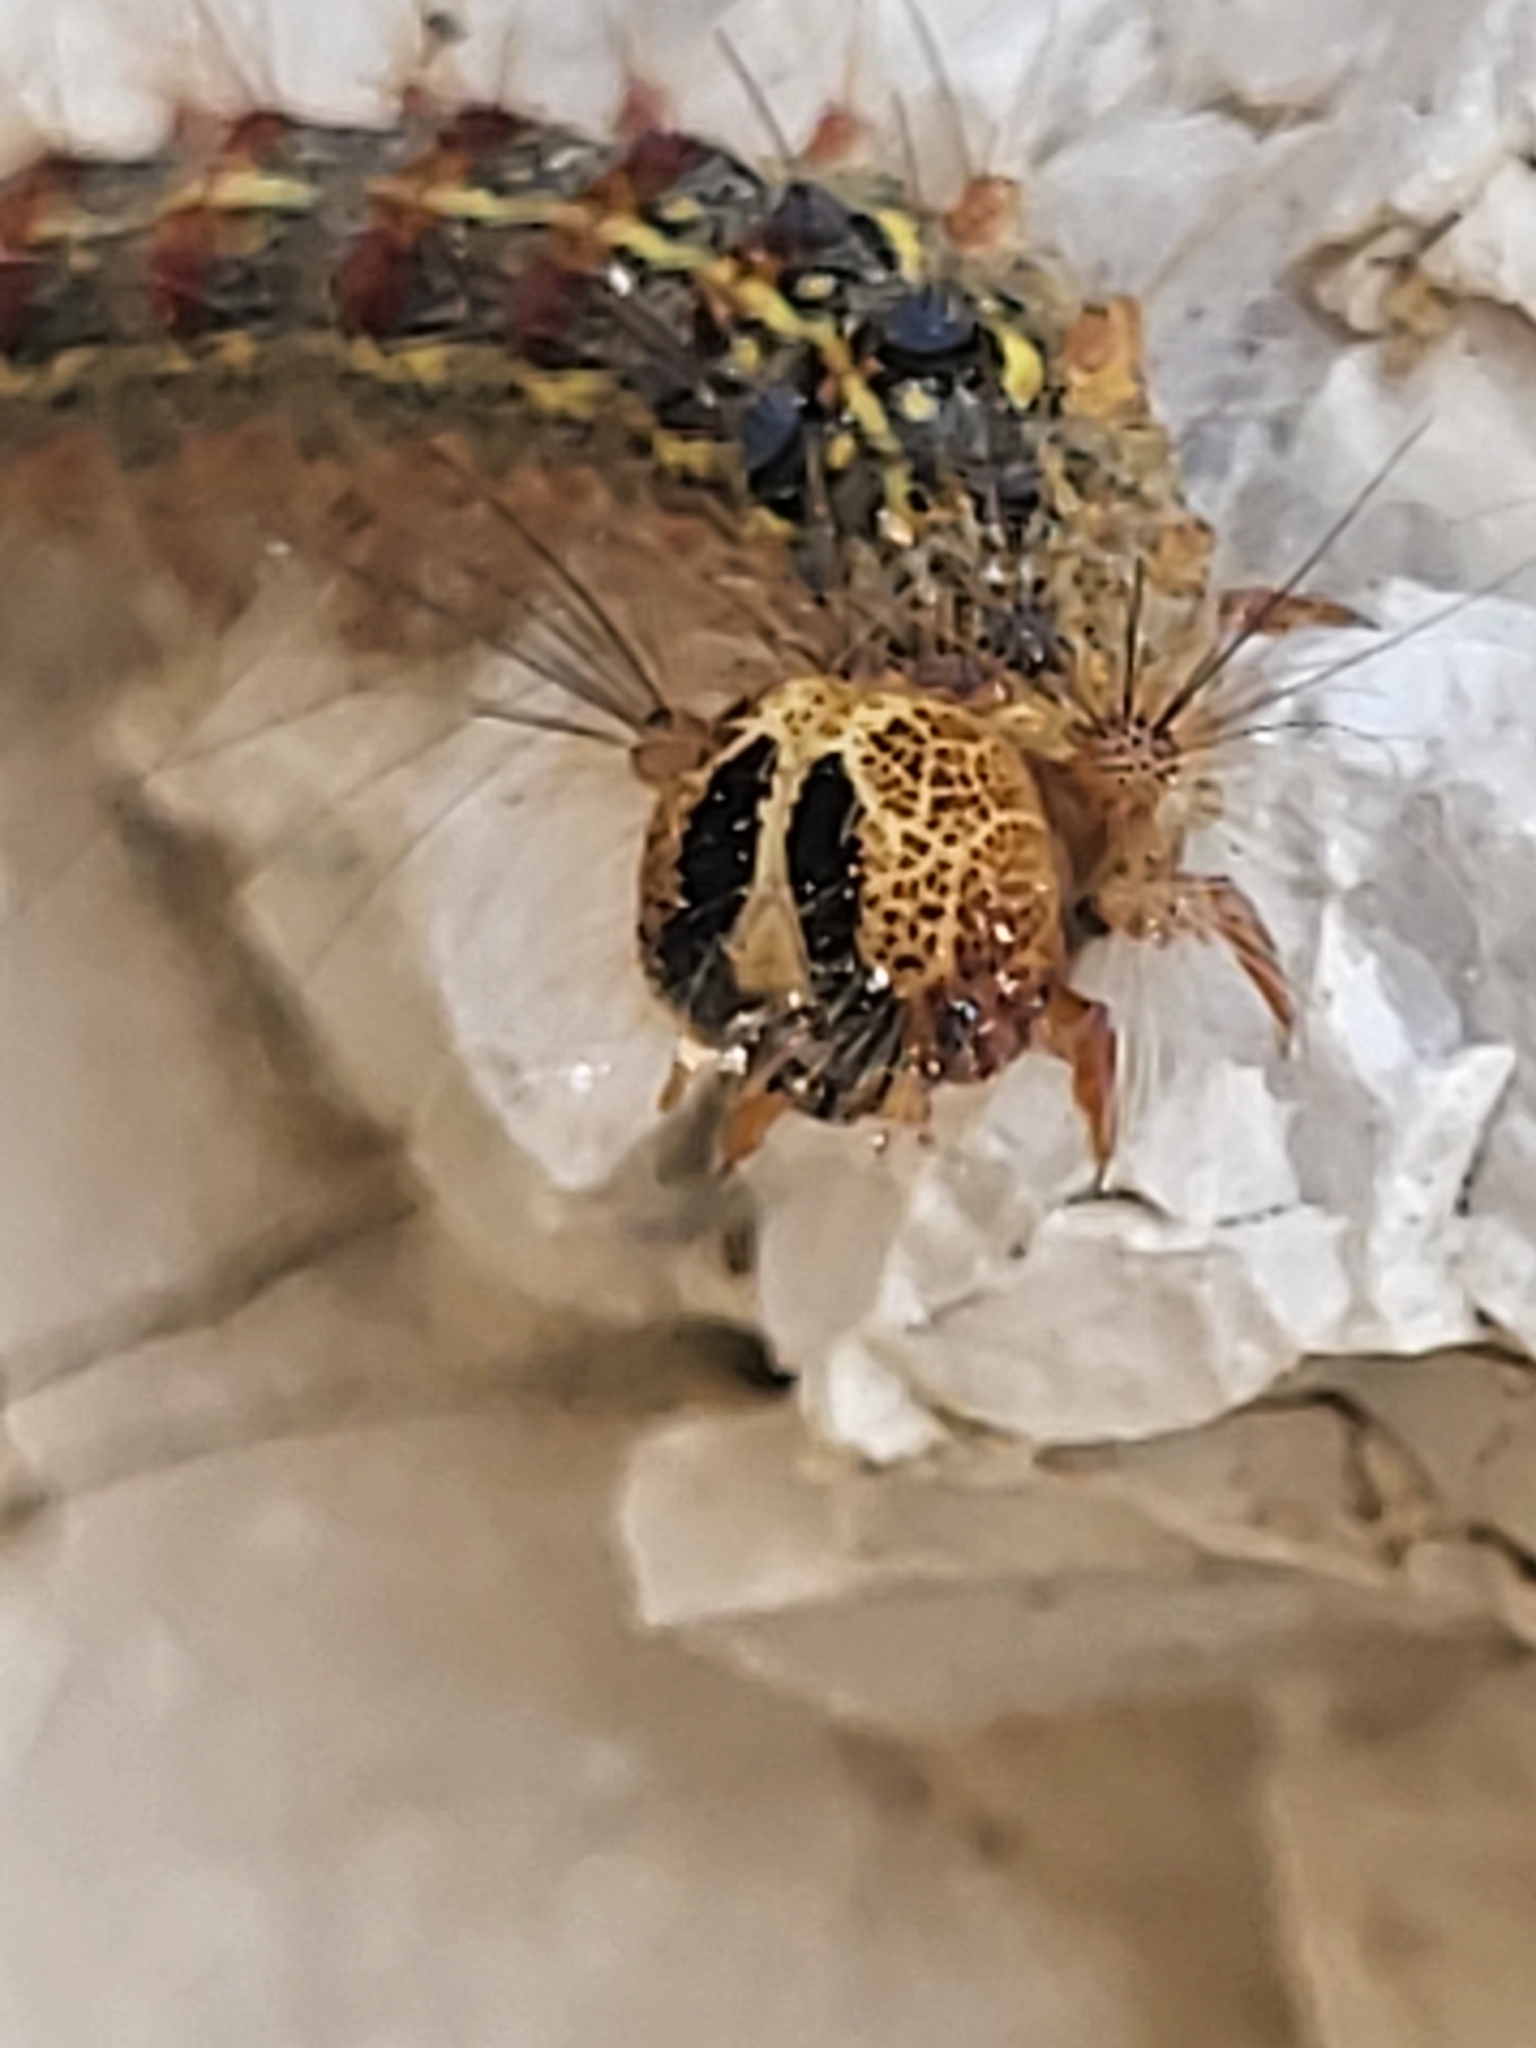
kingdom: Animalia
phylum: Arthropoda
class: Insecta
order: Lepidoptera
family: Erebidae
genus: Lymantria
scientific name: Lymantria dispar
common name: Gypsy moth
